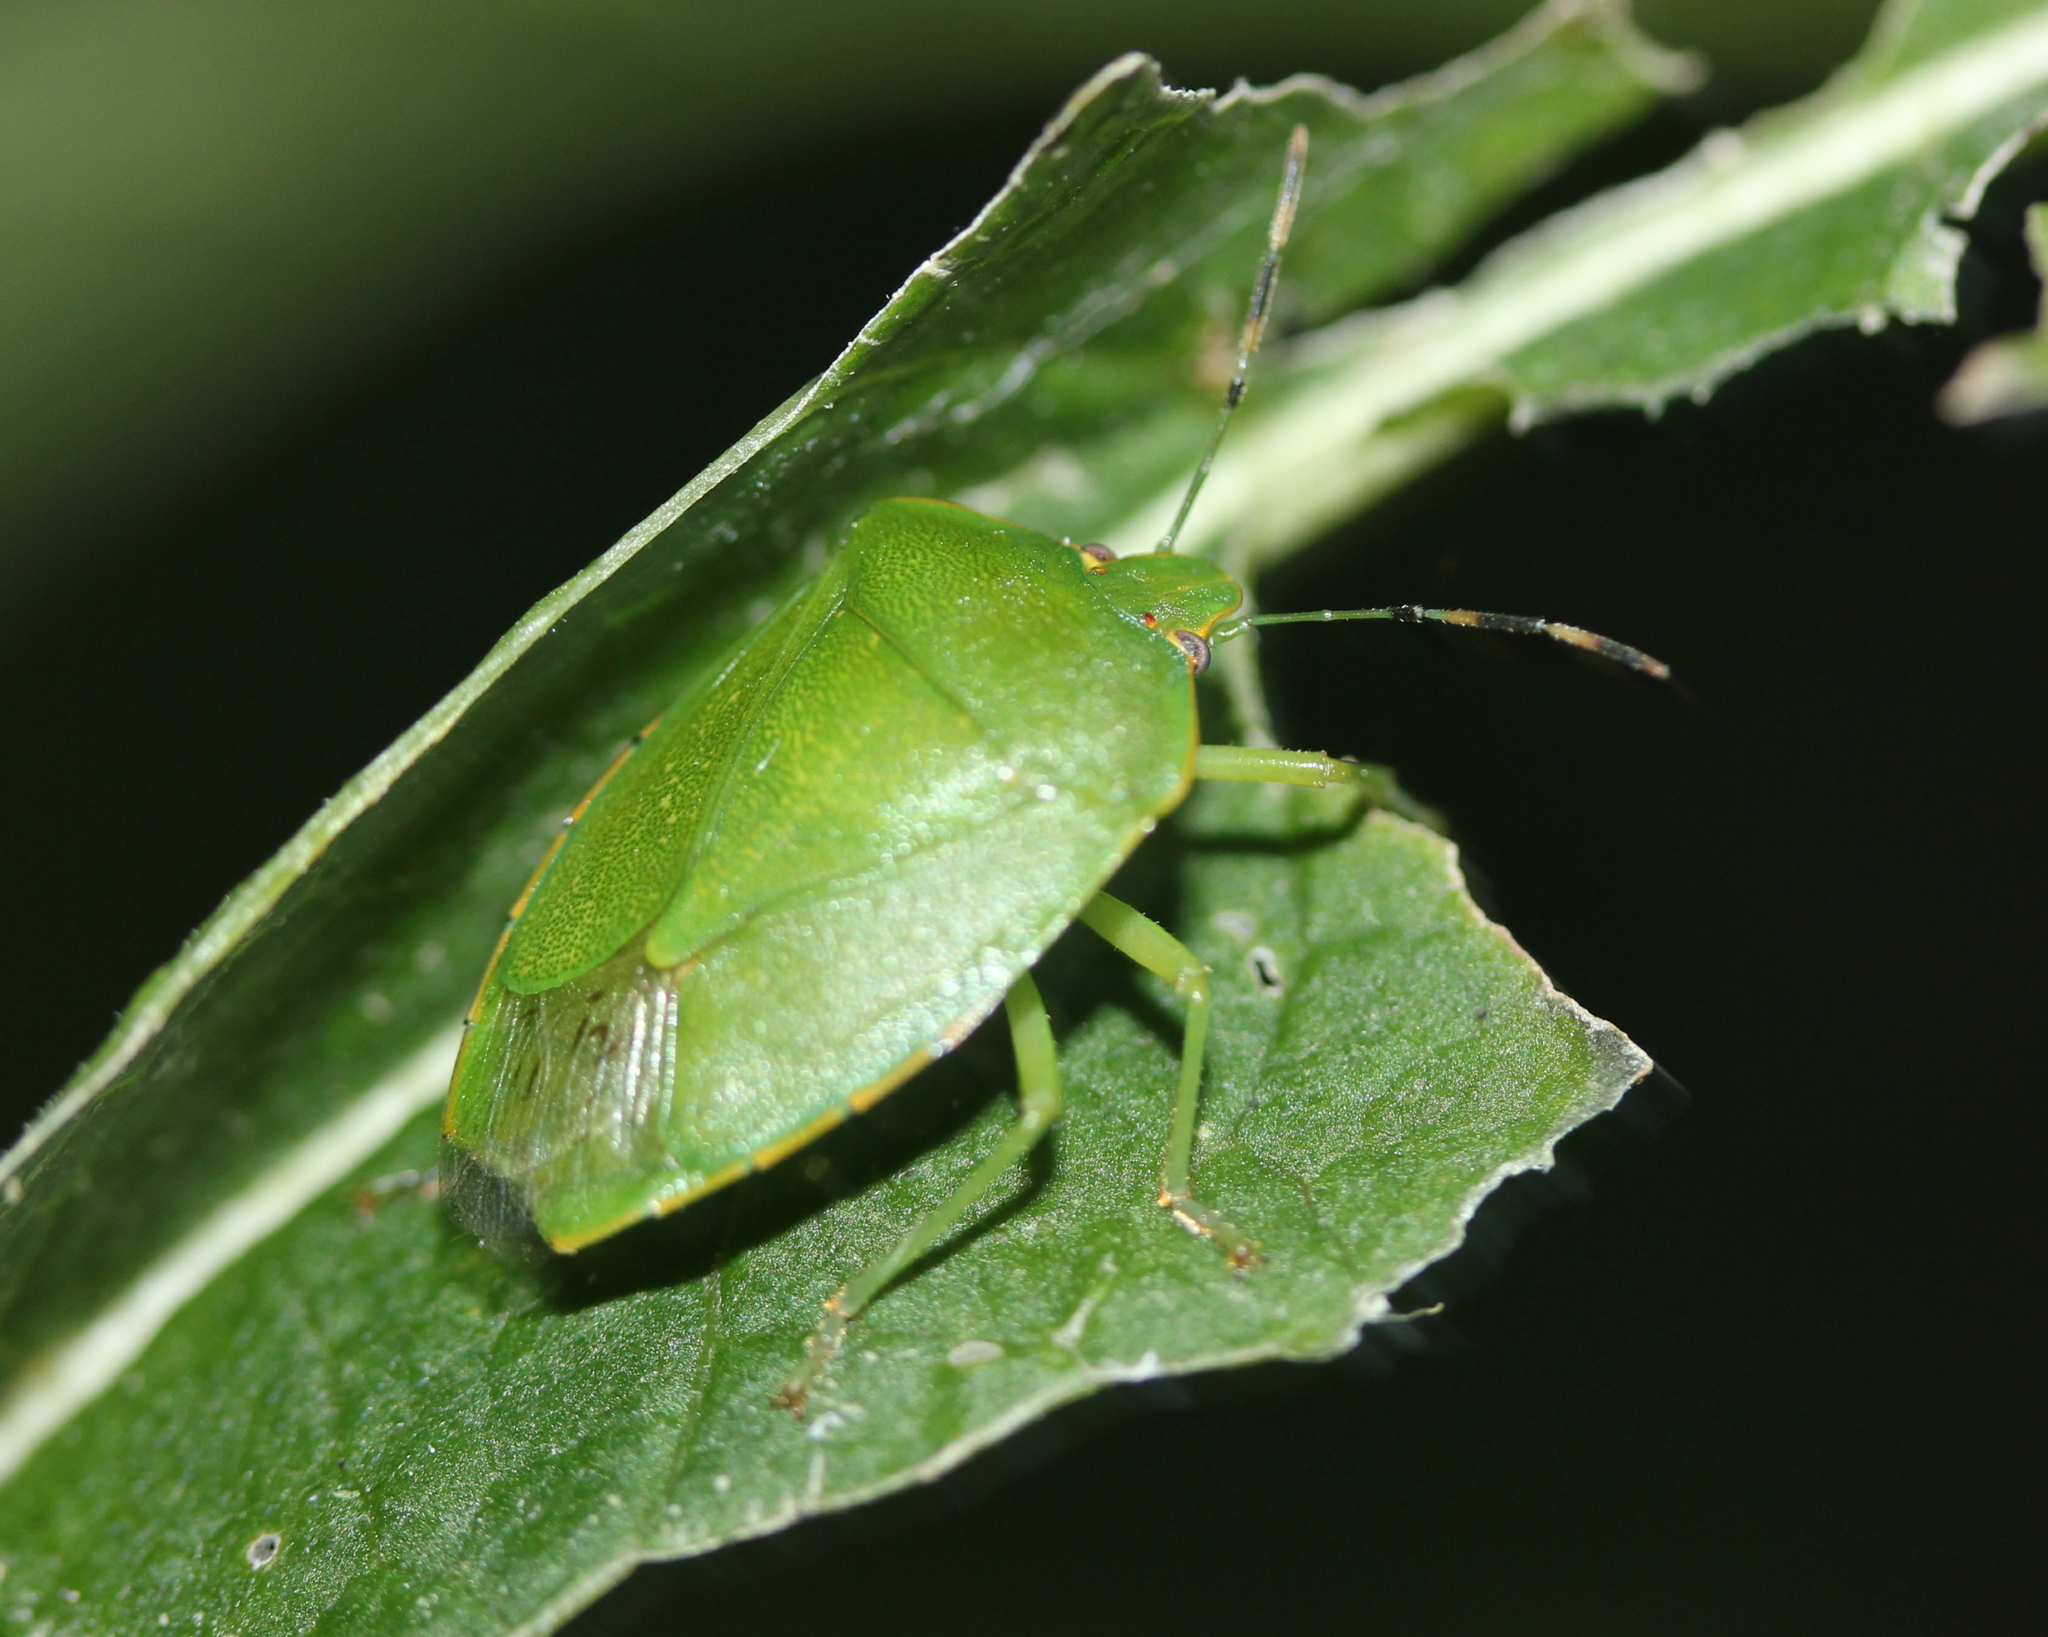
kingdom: Animalia
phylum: Arthropoda
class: Insecta
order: Hemiptera
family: Pentatomidae
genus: Chinavia
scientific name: Chinavia hilaris
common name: Green stink bug
